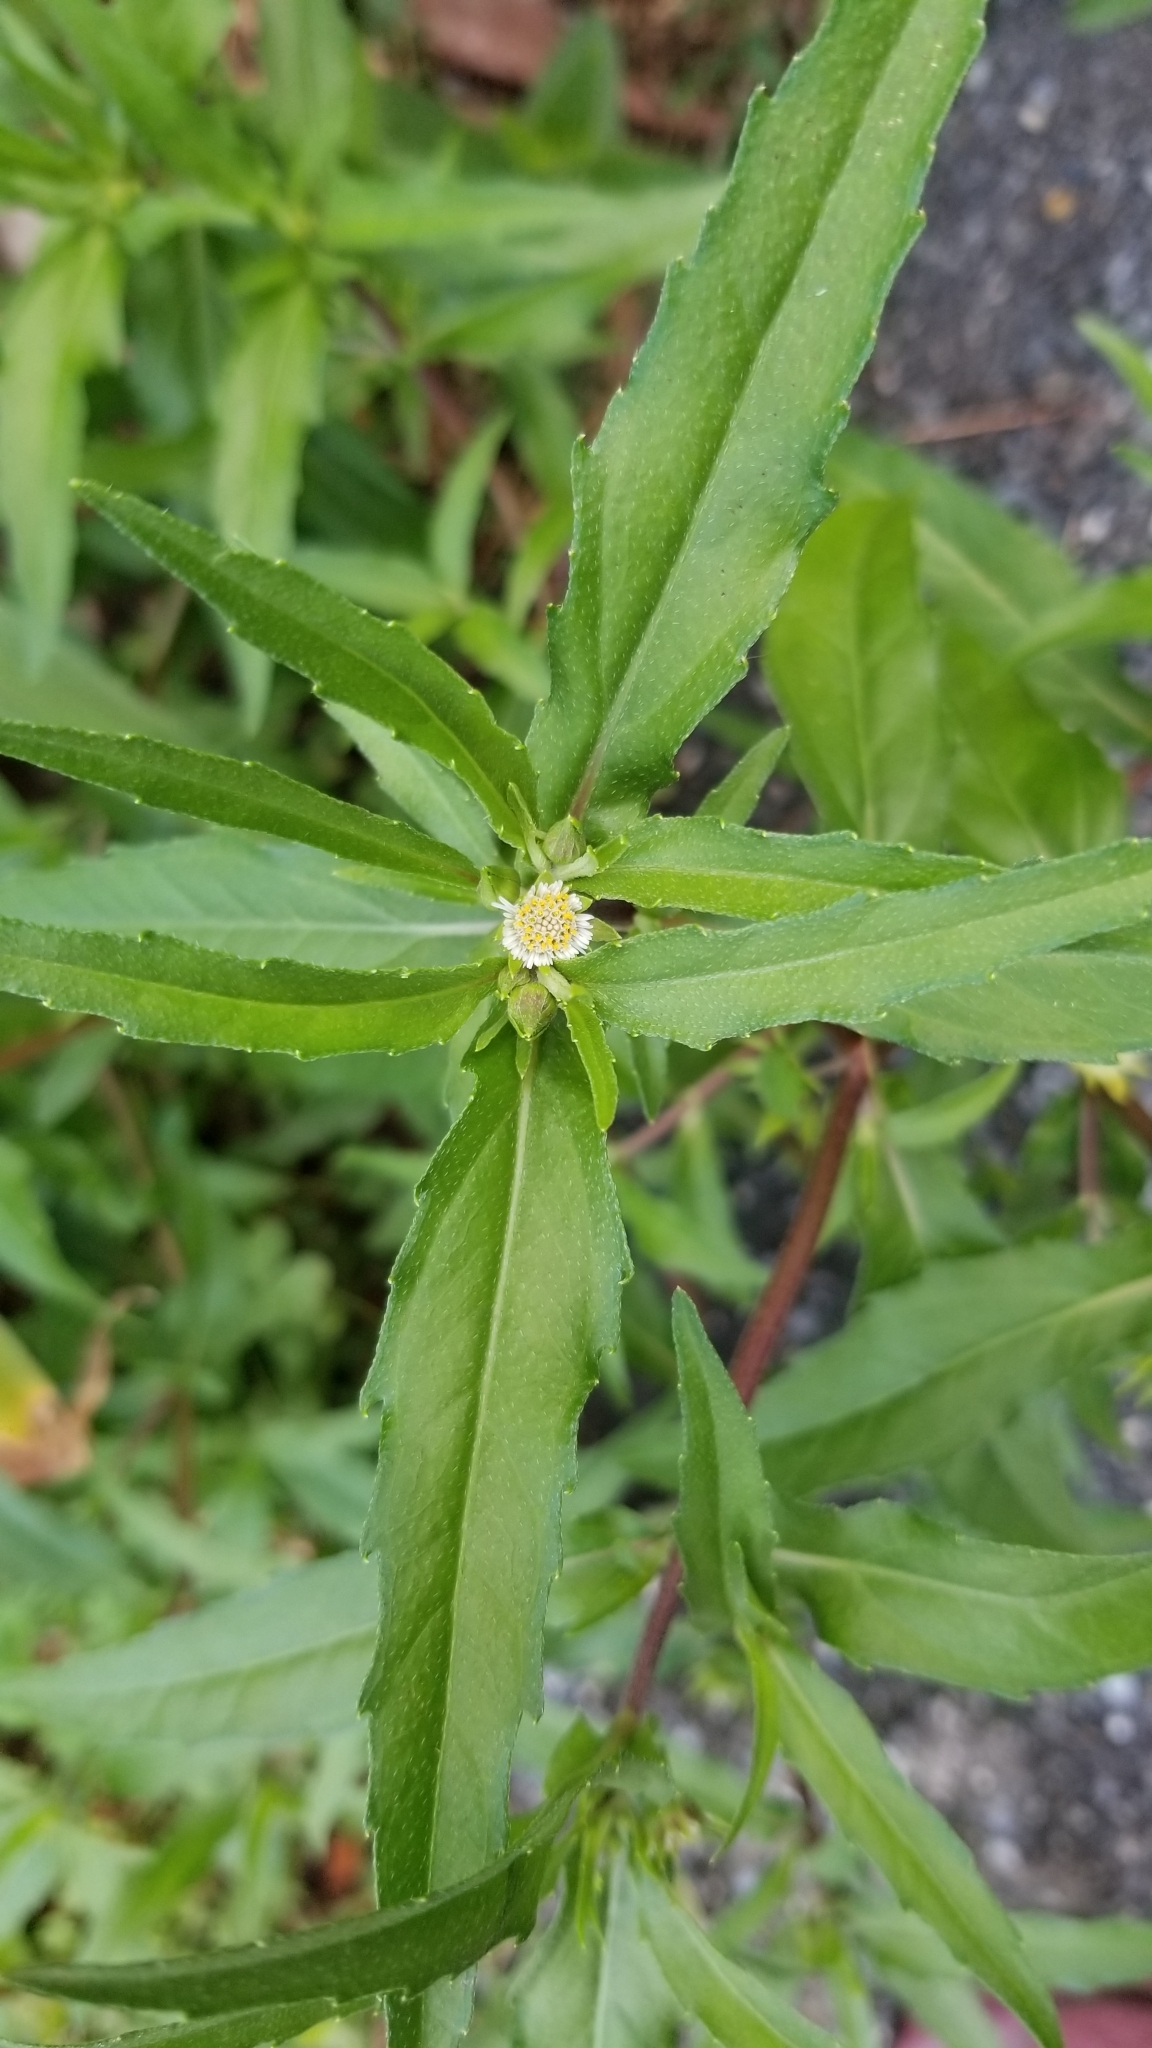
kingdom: Plantae
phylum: Tracheophyta
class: Magnoliopsida
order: Asterales
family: Asteraceae
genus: Eclipta
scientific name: Eclipta prostrata
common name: False daisy
